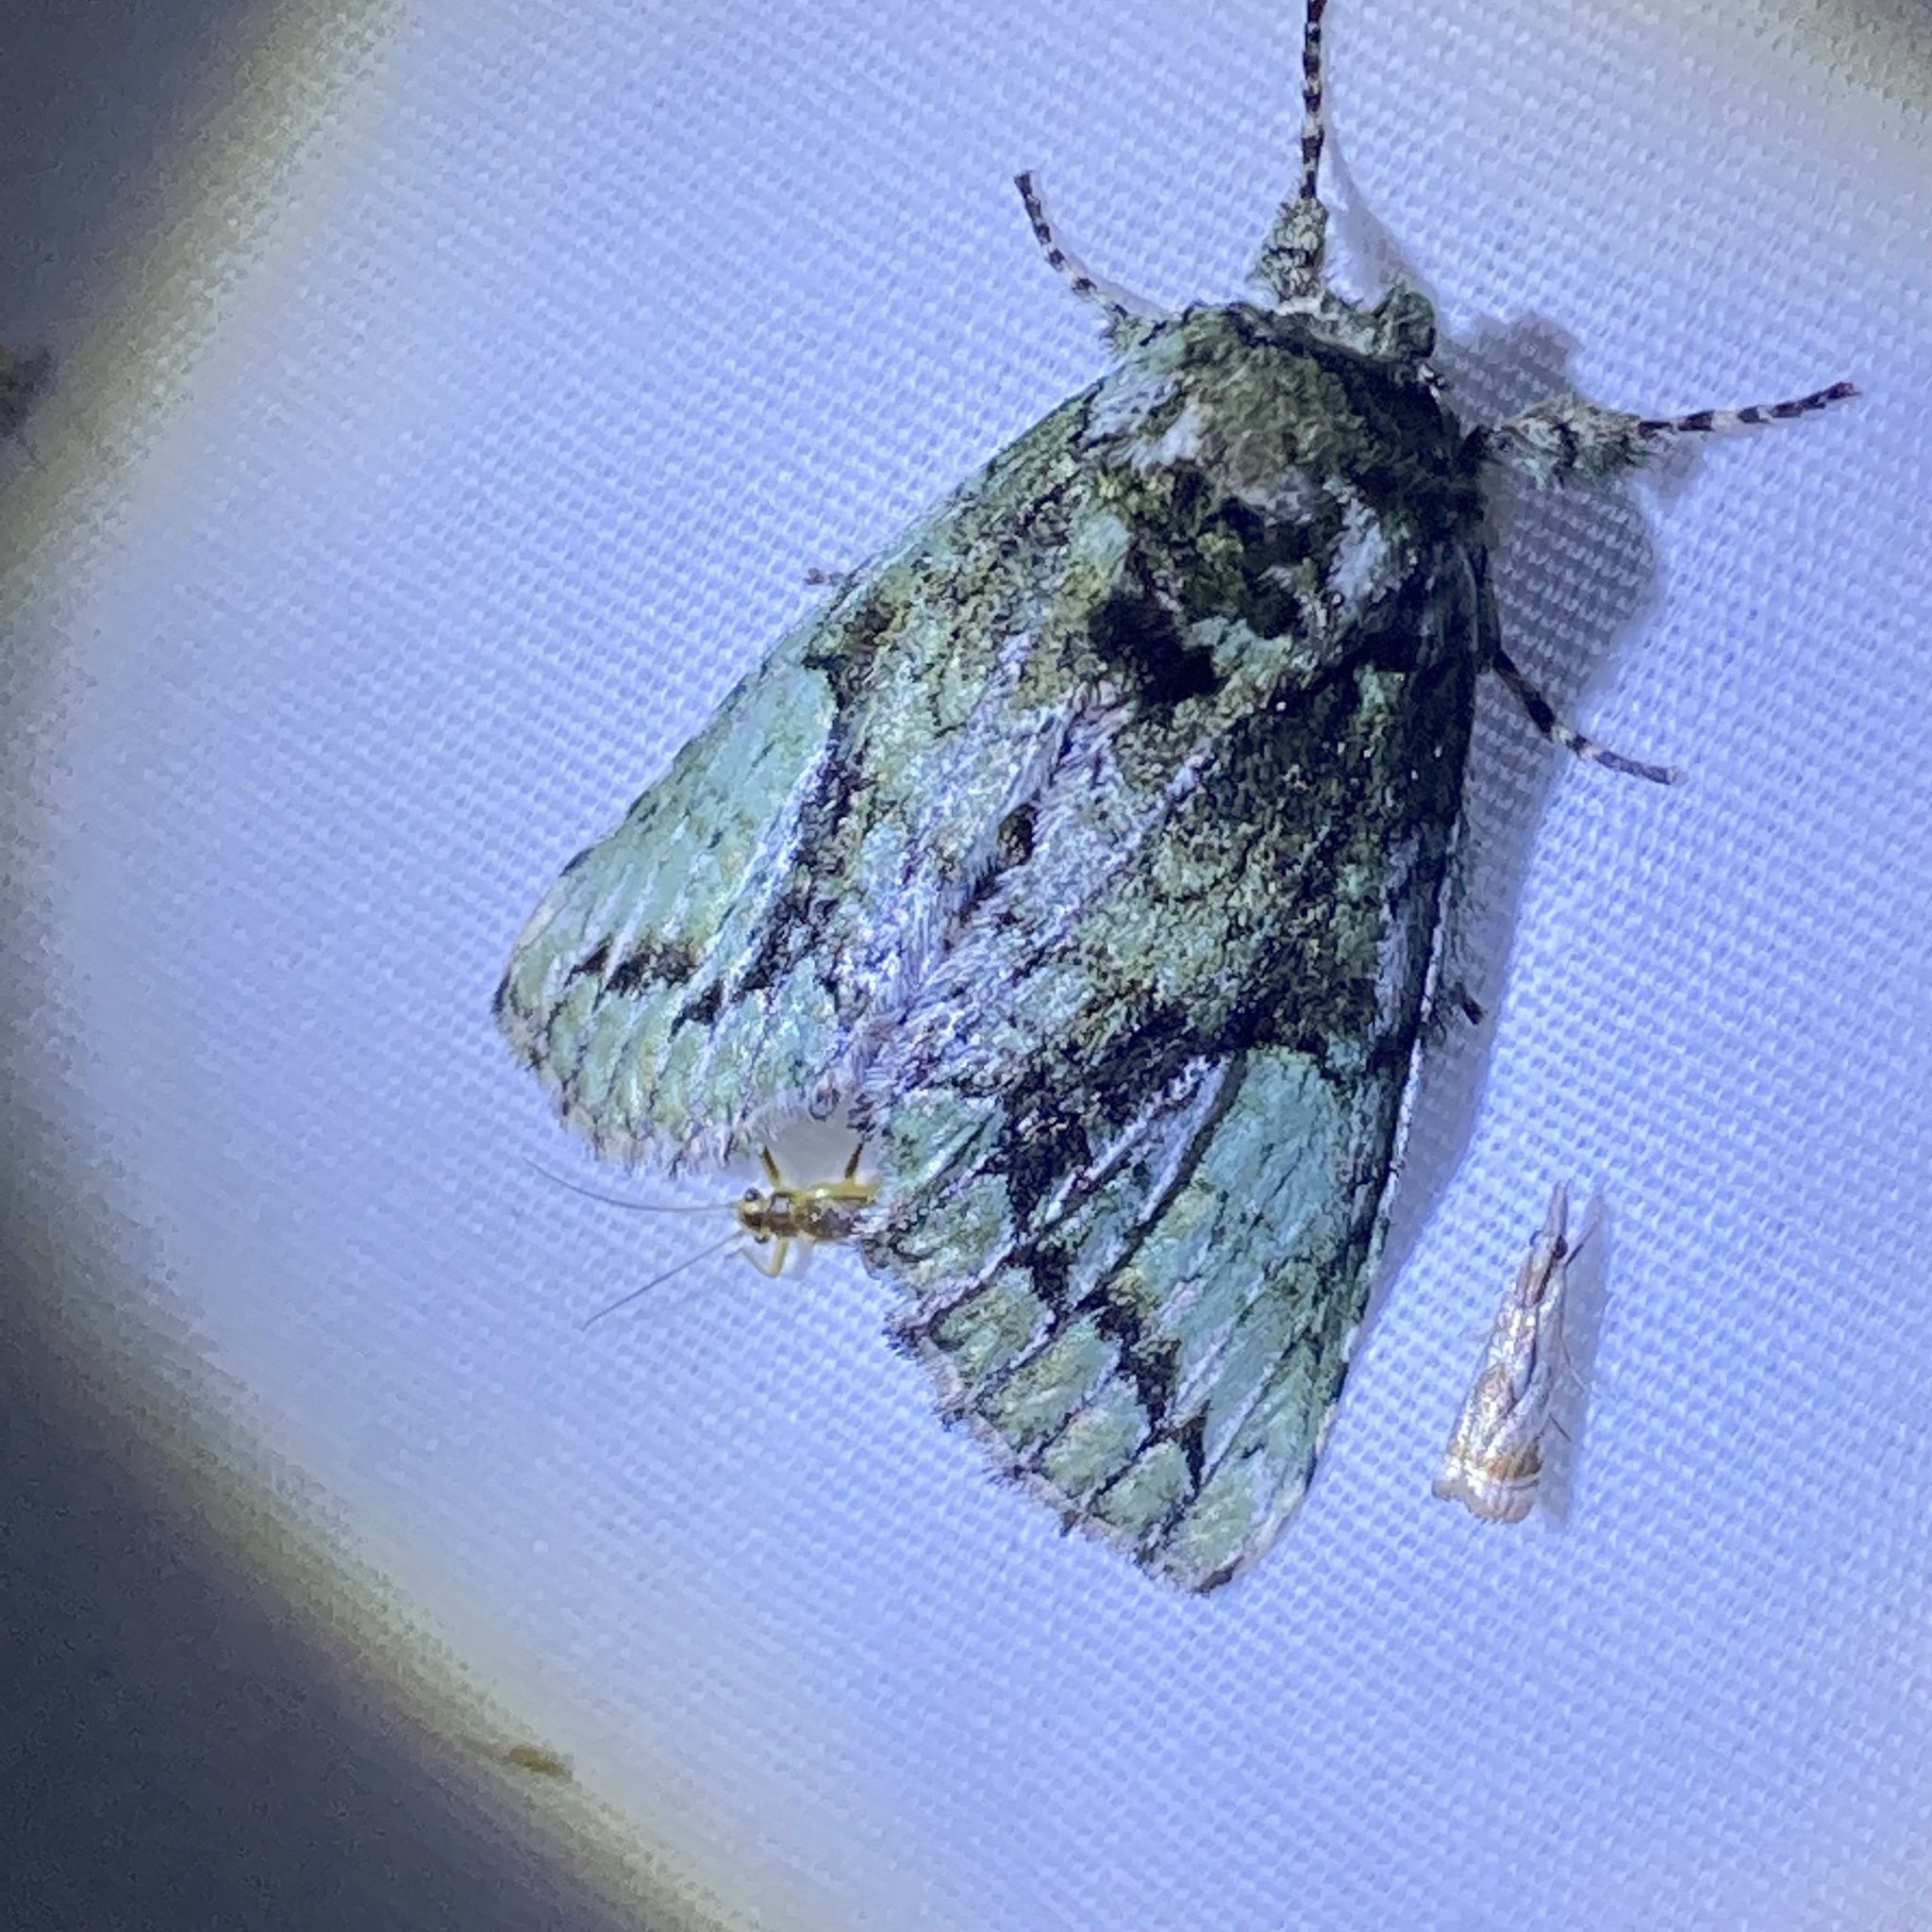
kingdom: Animalia
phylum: Arthropoda
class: Insecta
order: Lepidoptera
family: Notodontidae
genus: Heterocampa
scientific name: Heterocampa
